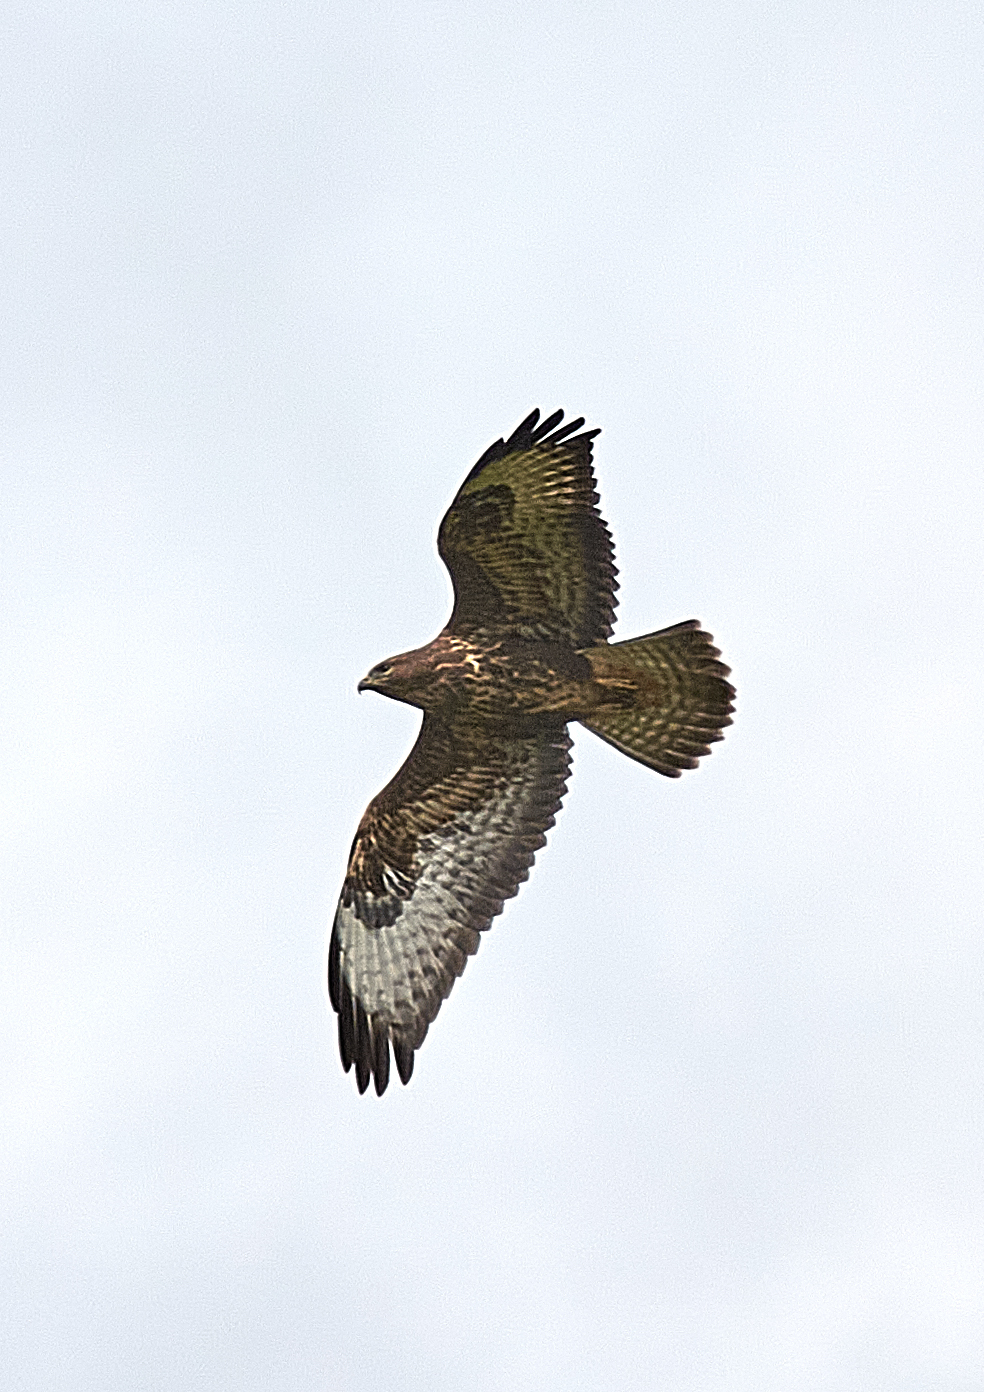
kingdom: Animalia
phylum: Chordata
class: Aves
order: Accipitriformes
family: Accipitridae
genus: Buteo
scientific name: Buteo buteo
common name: Common buzzard
